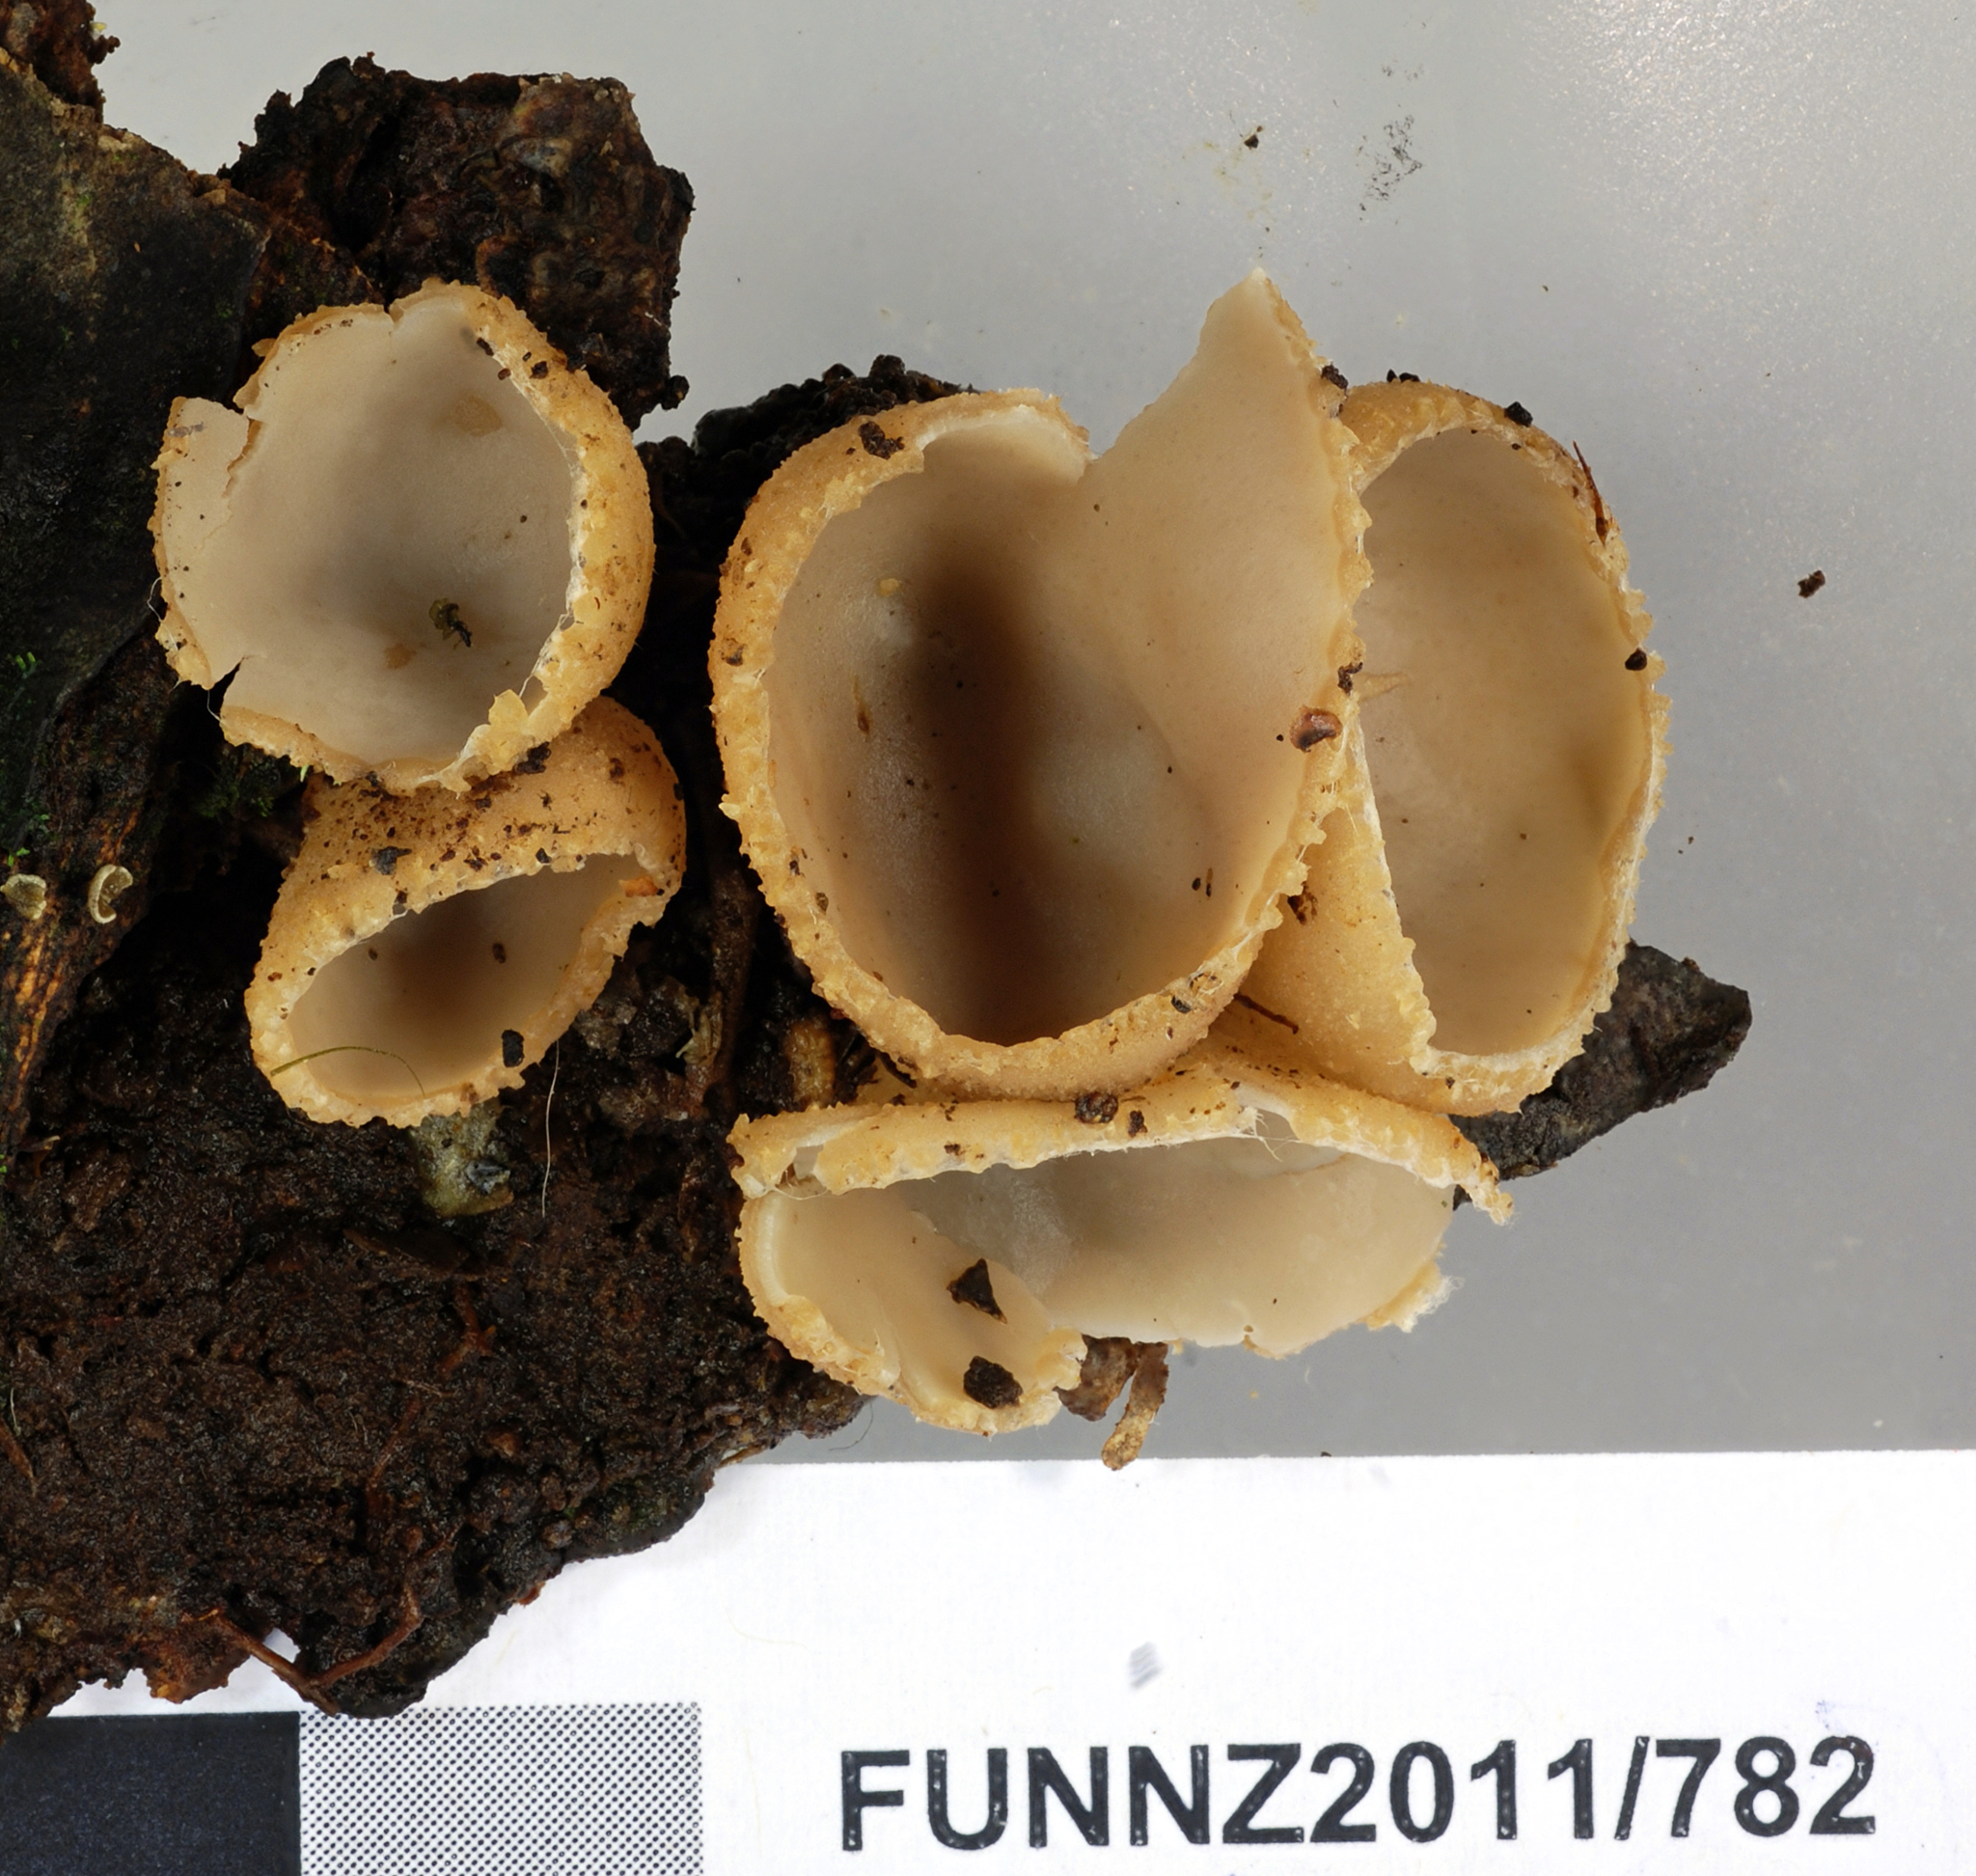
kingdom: Fungi
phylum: Ascomycota
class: Pezizomycetes
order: Pezizales
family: Tarzettaceae
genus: Tarzetta
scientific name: Tarzetta jafneospora
